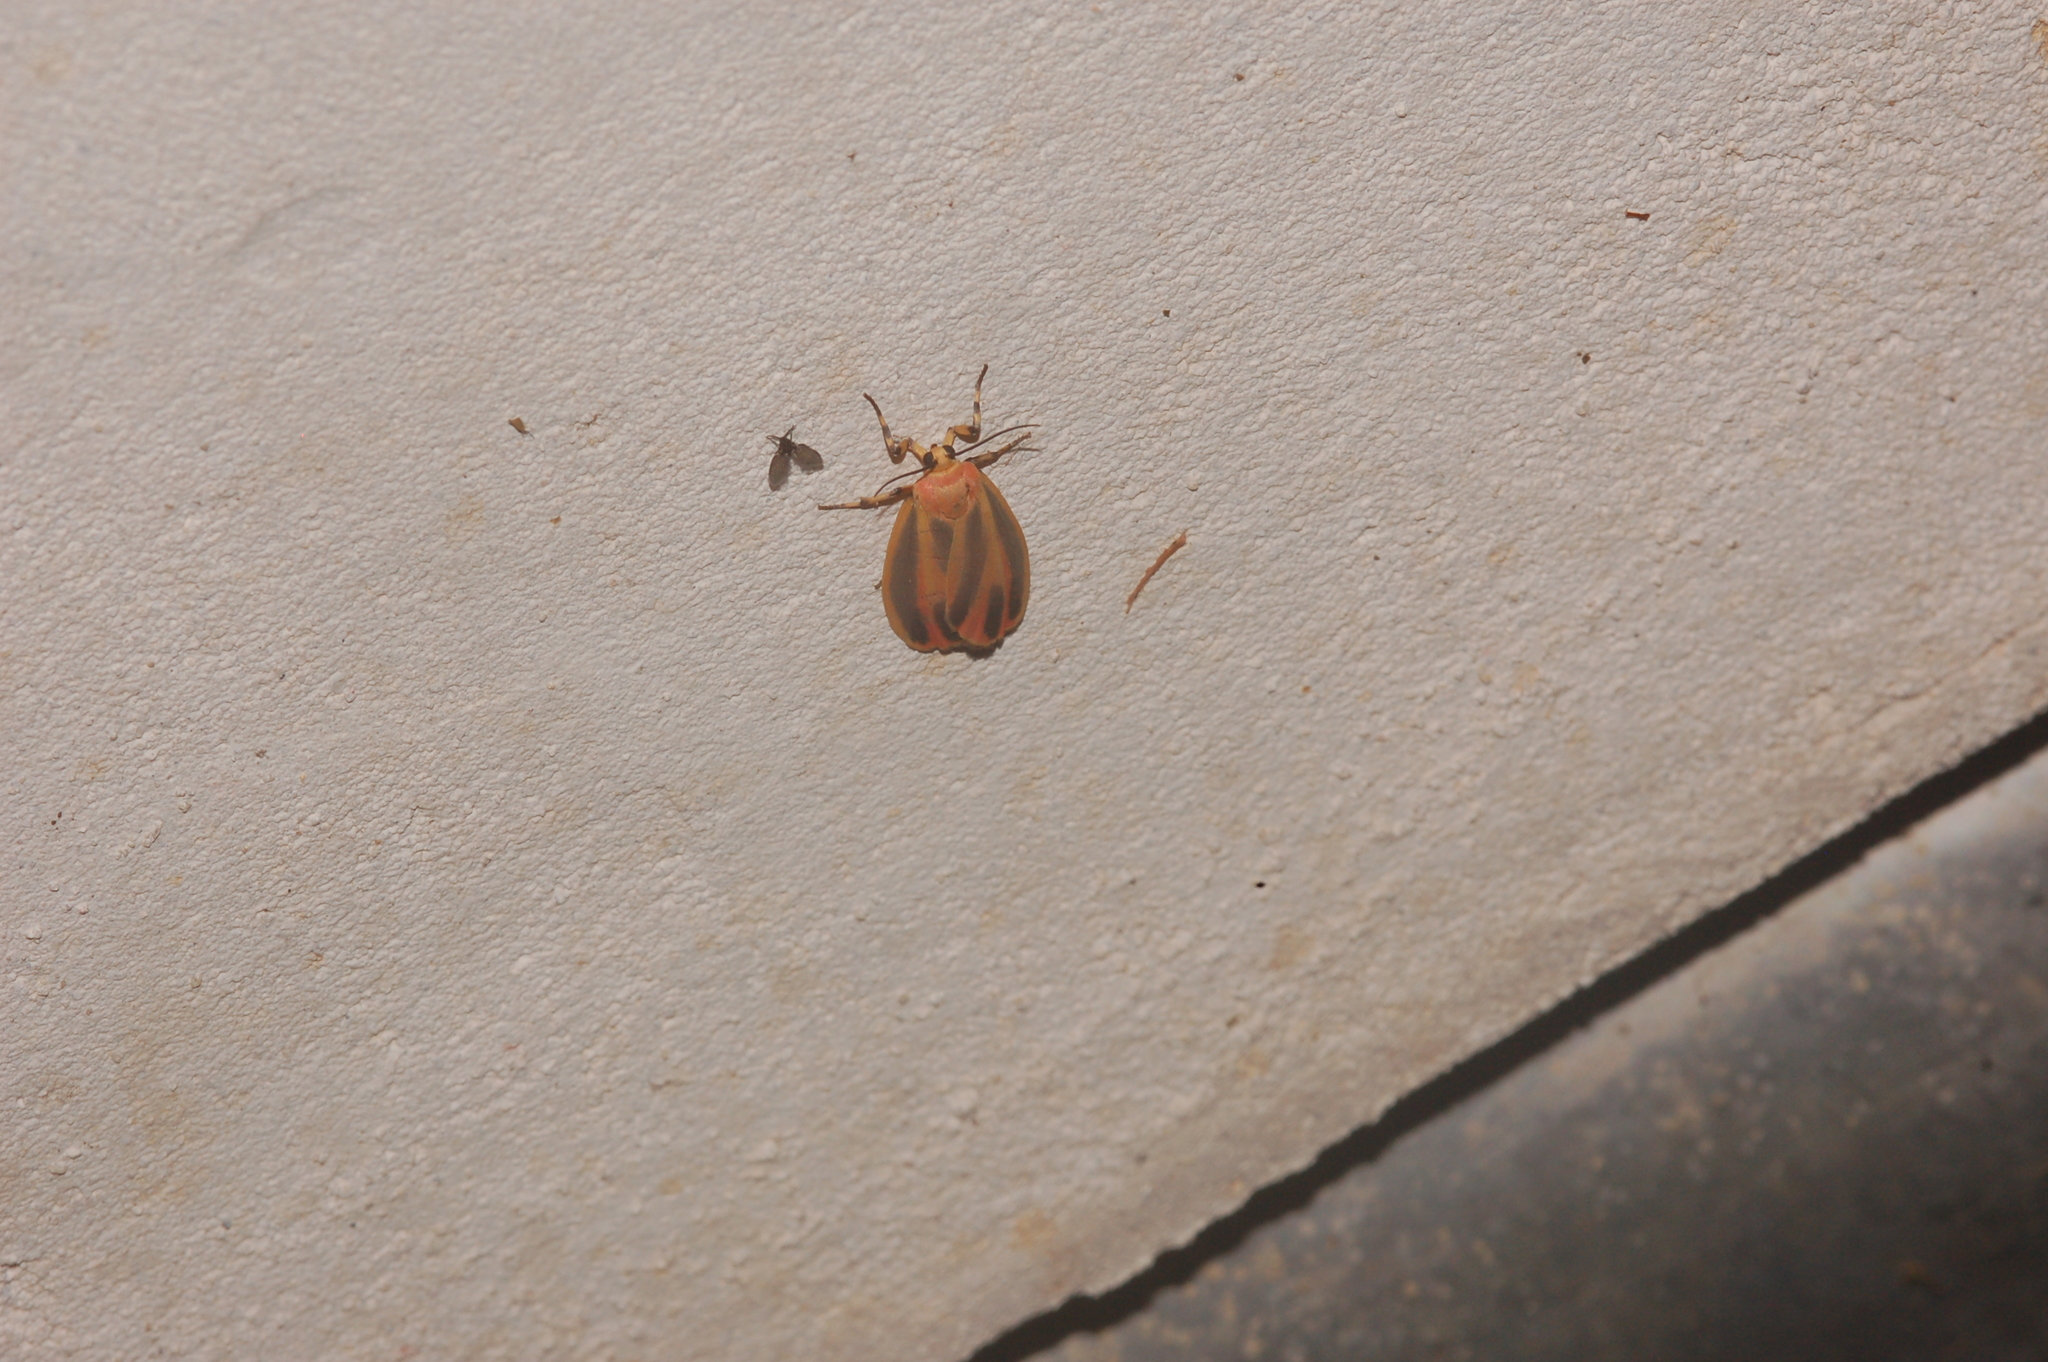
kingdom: Animalia
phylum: Arthropoda
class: Insecta
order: Lepidoptera
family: Erebidae
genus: Hypoprepia
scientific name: Hypoprepia fucosa
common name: Painted lichen moth
